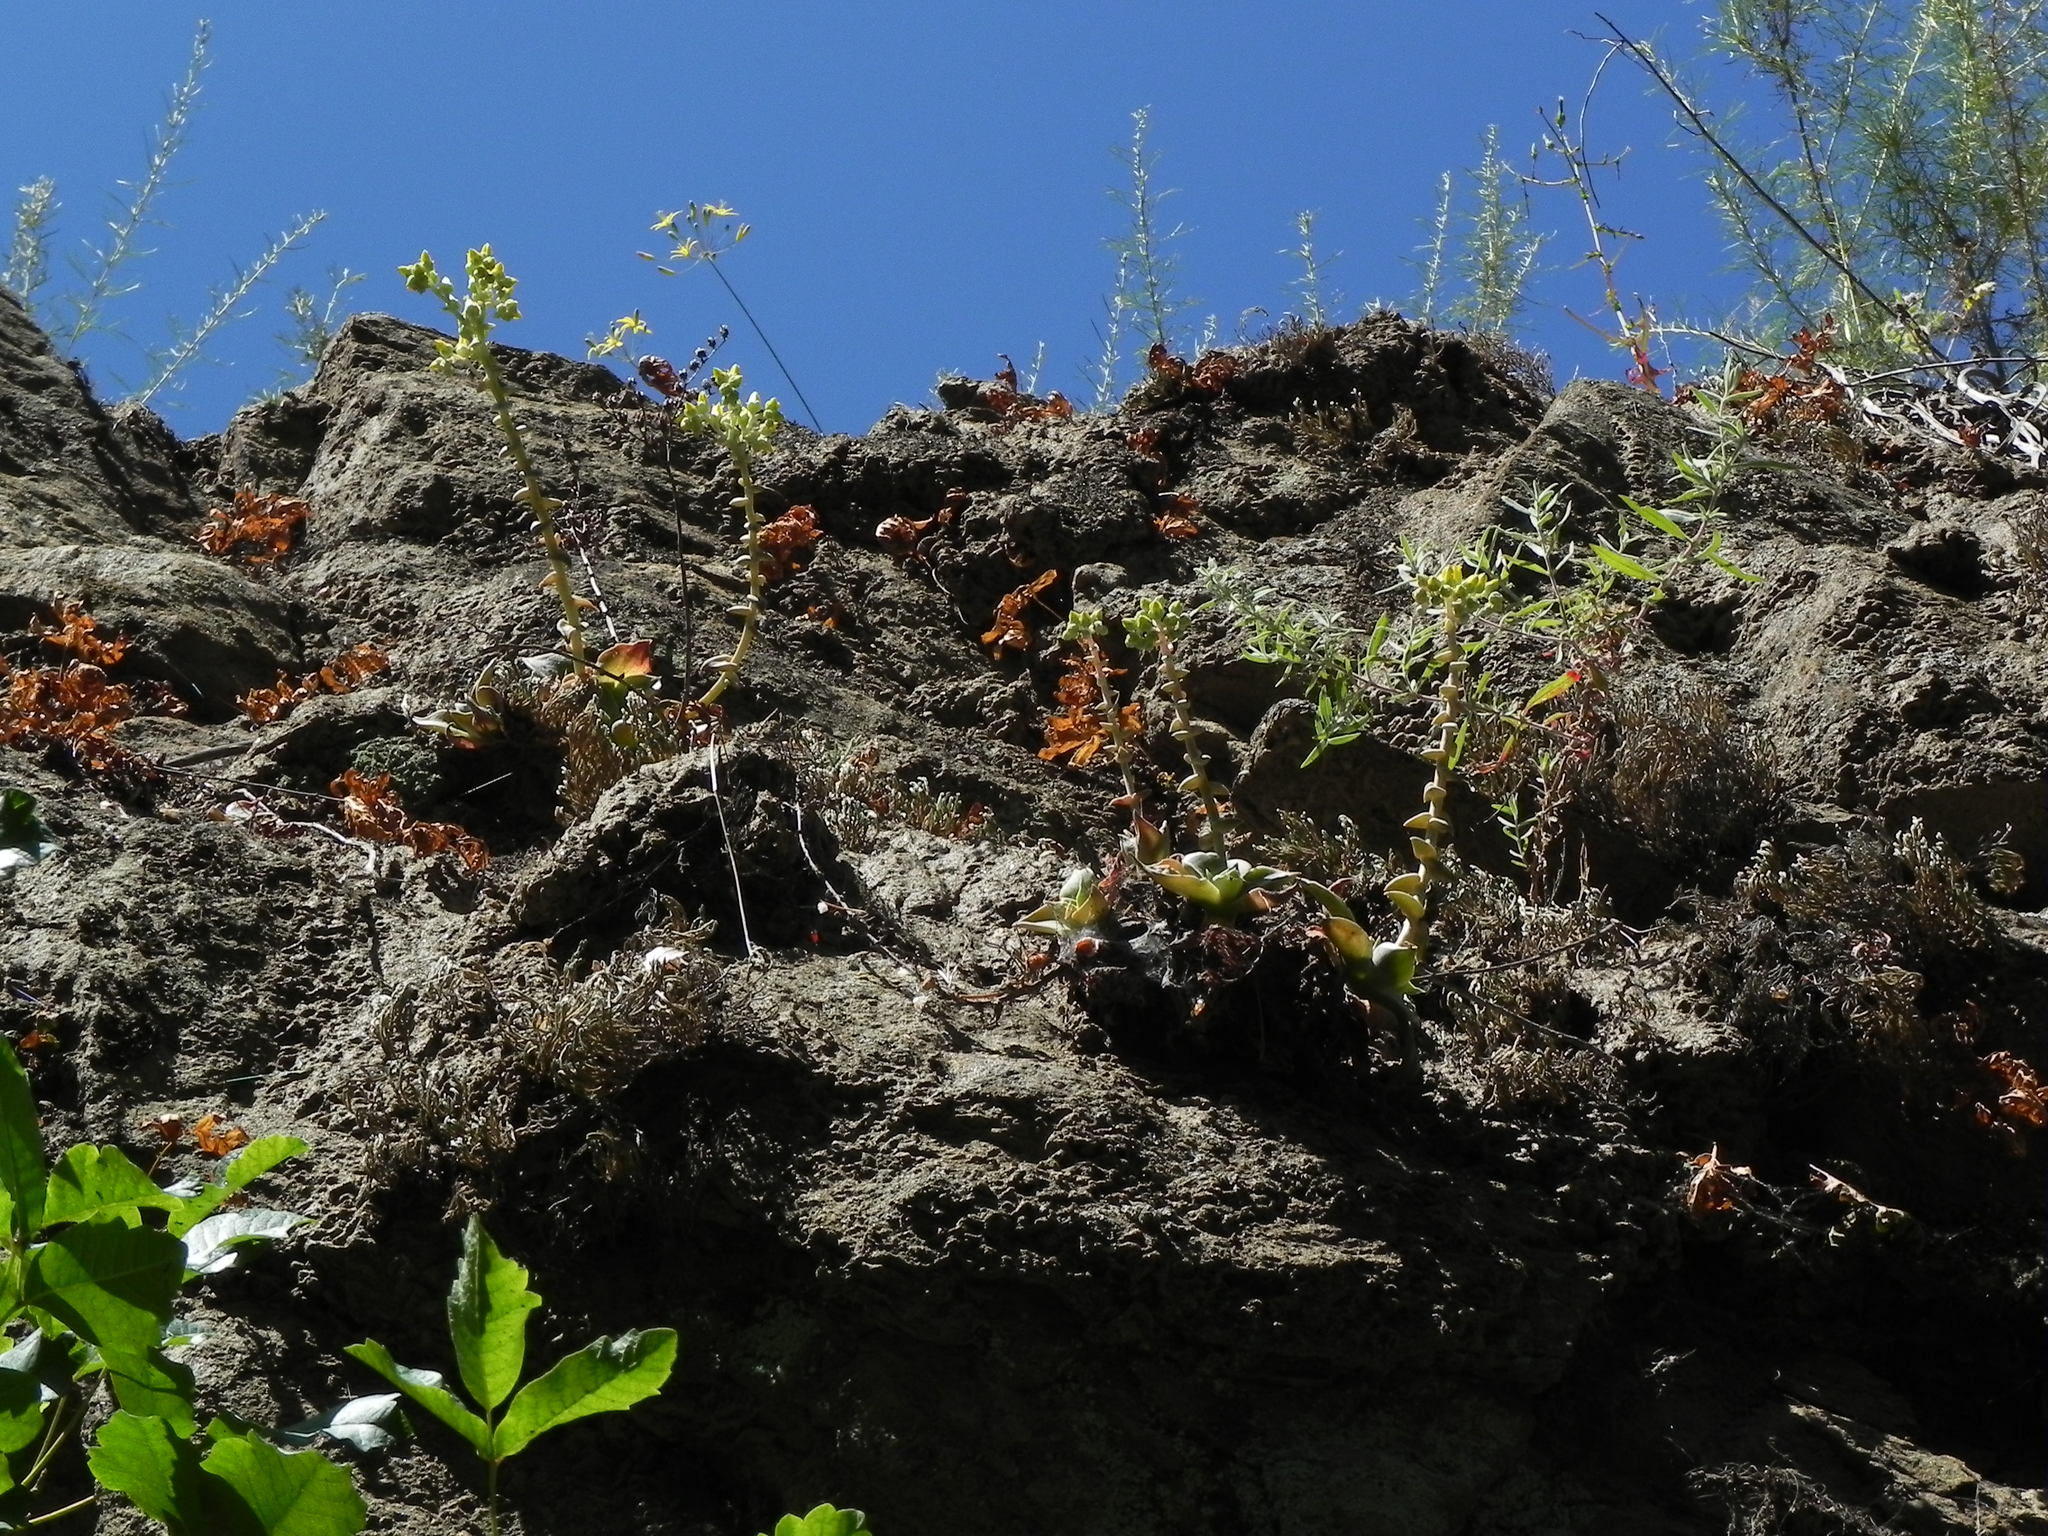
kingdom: Plantae
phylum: Tracheophyta
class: Magnoliopsida
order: Saxifragales
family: Crassulaceae
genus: Dudleya
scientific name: Dudleya cymosa
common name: Canyon dudleya
